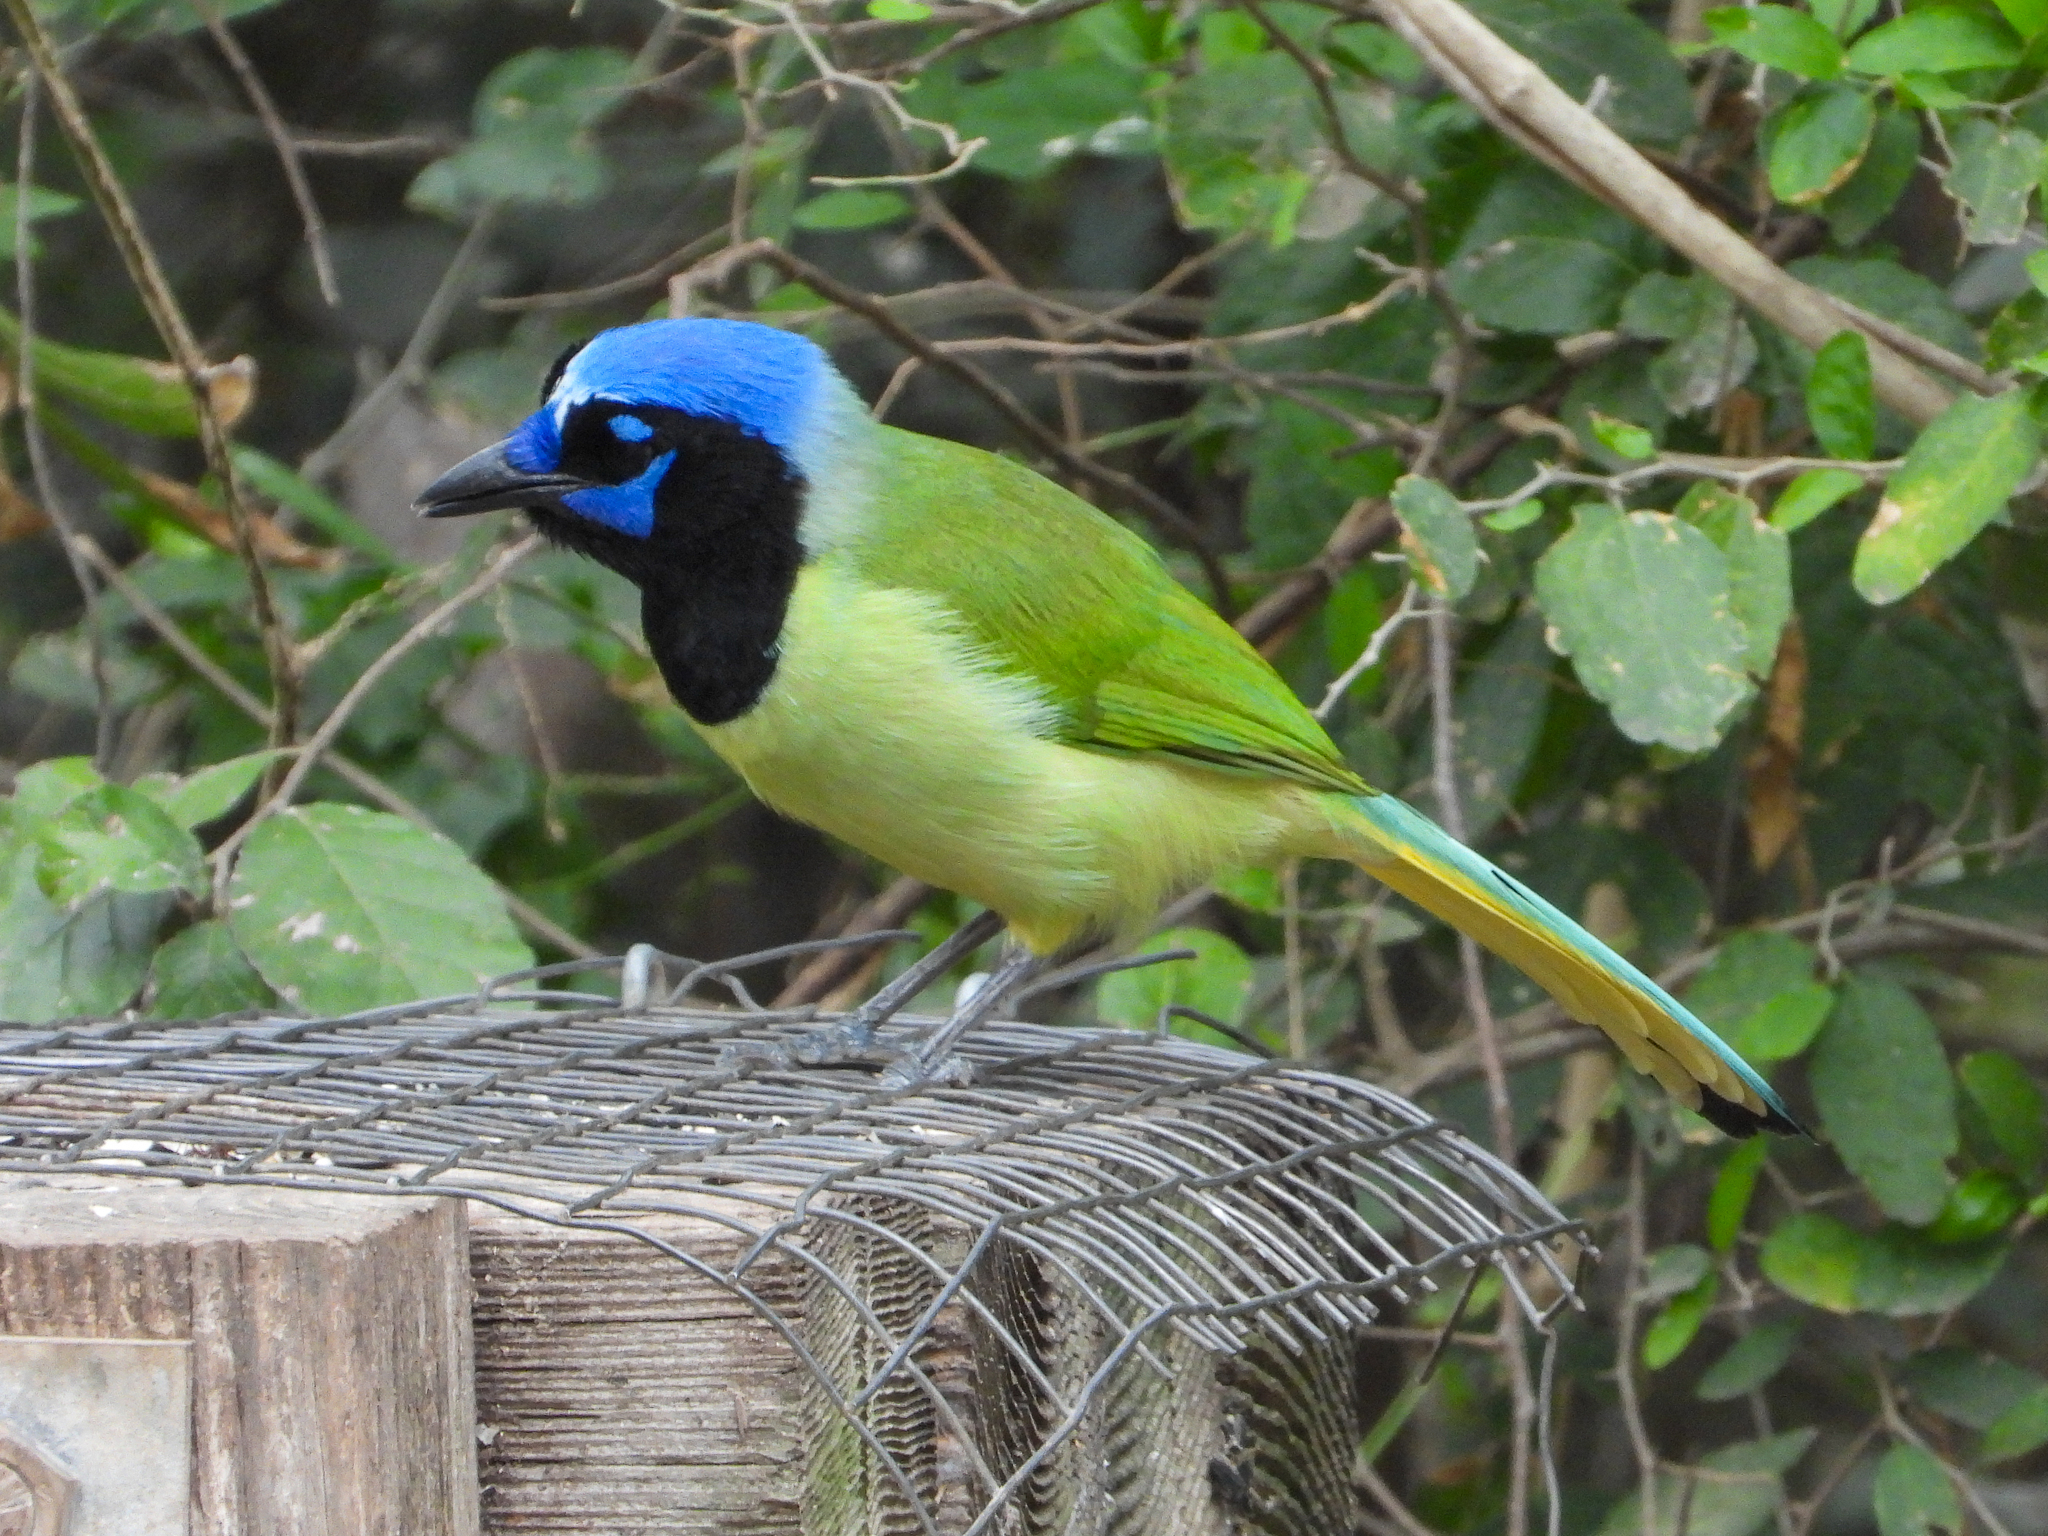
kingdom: Animalia
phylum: Chordata
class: Aves
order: Passeriformes
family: Corvidae
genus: Cyanocorax
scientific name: Cyanocorax yncas
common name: Green jay
